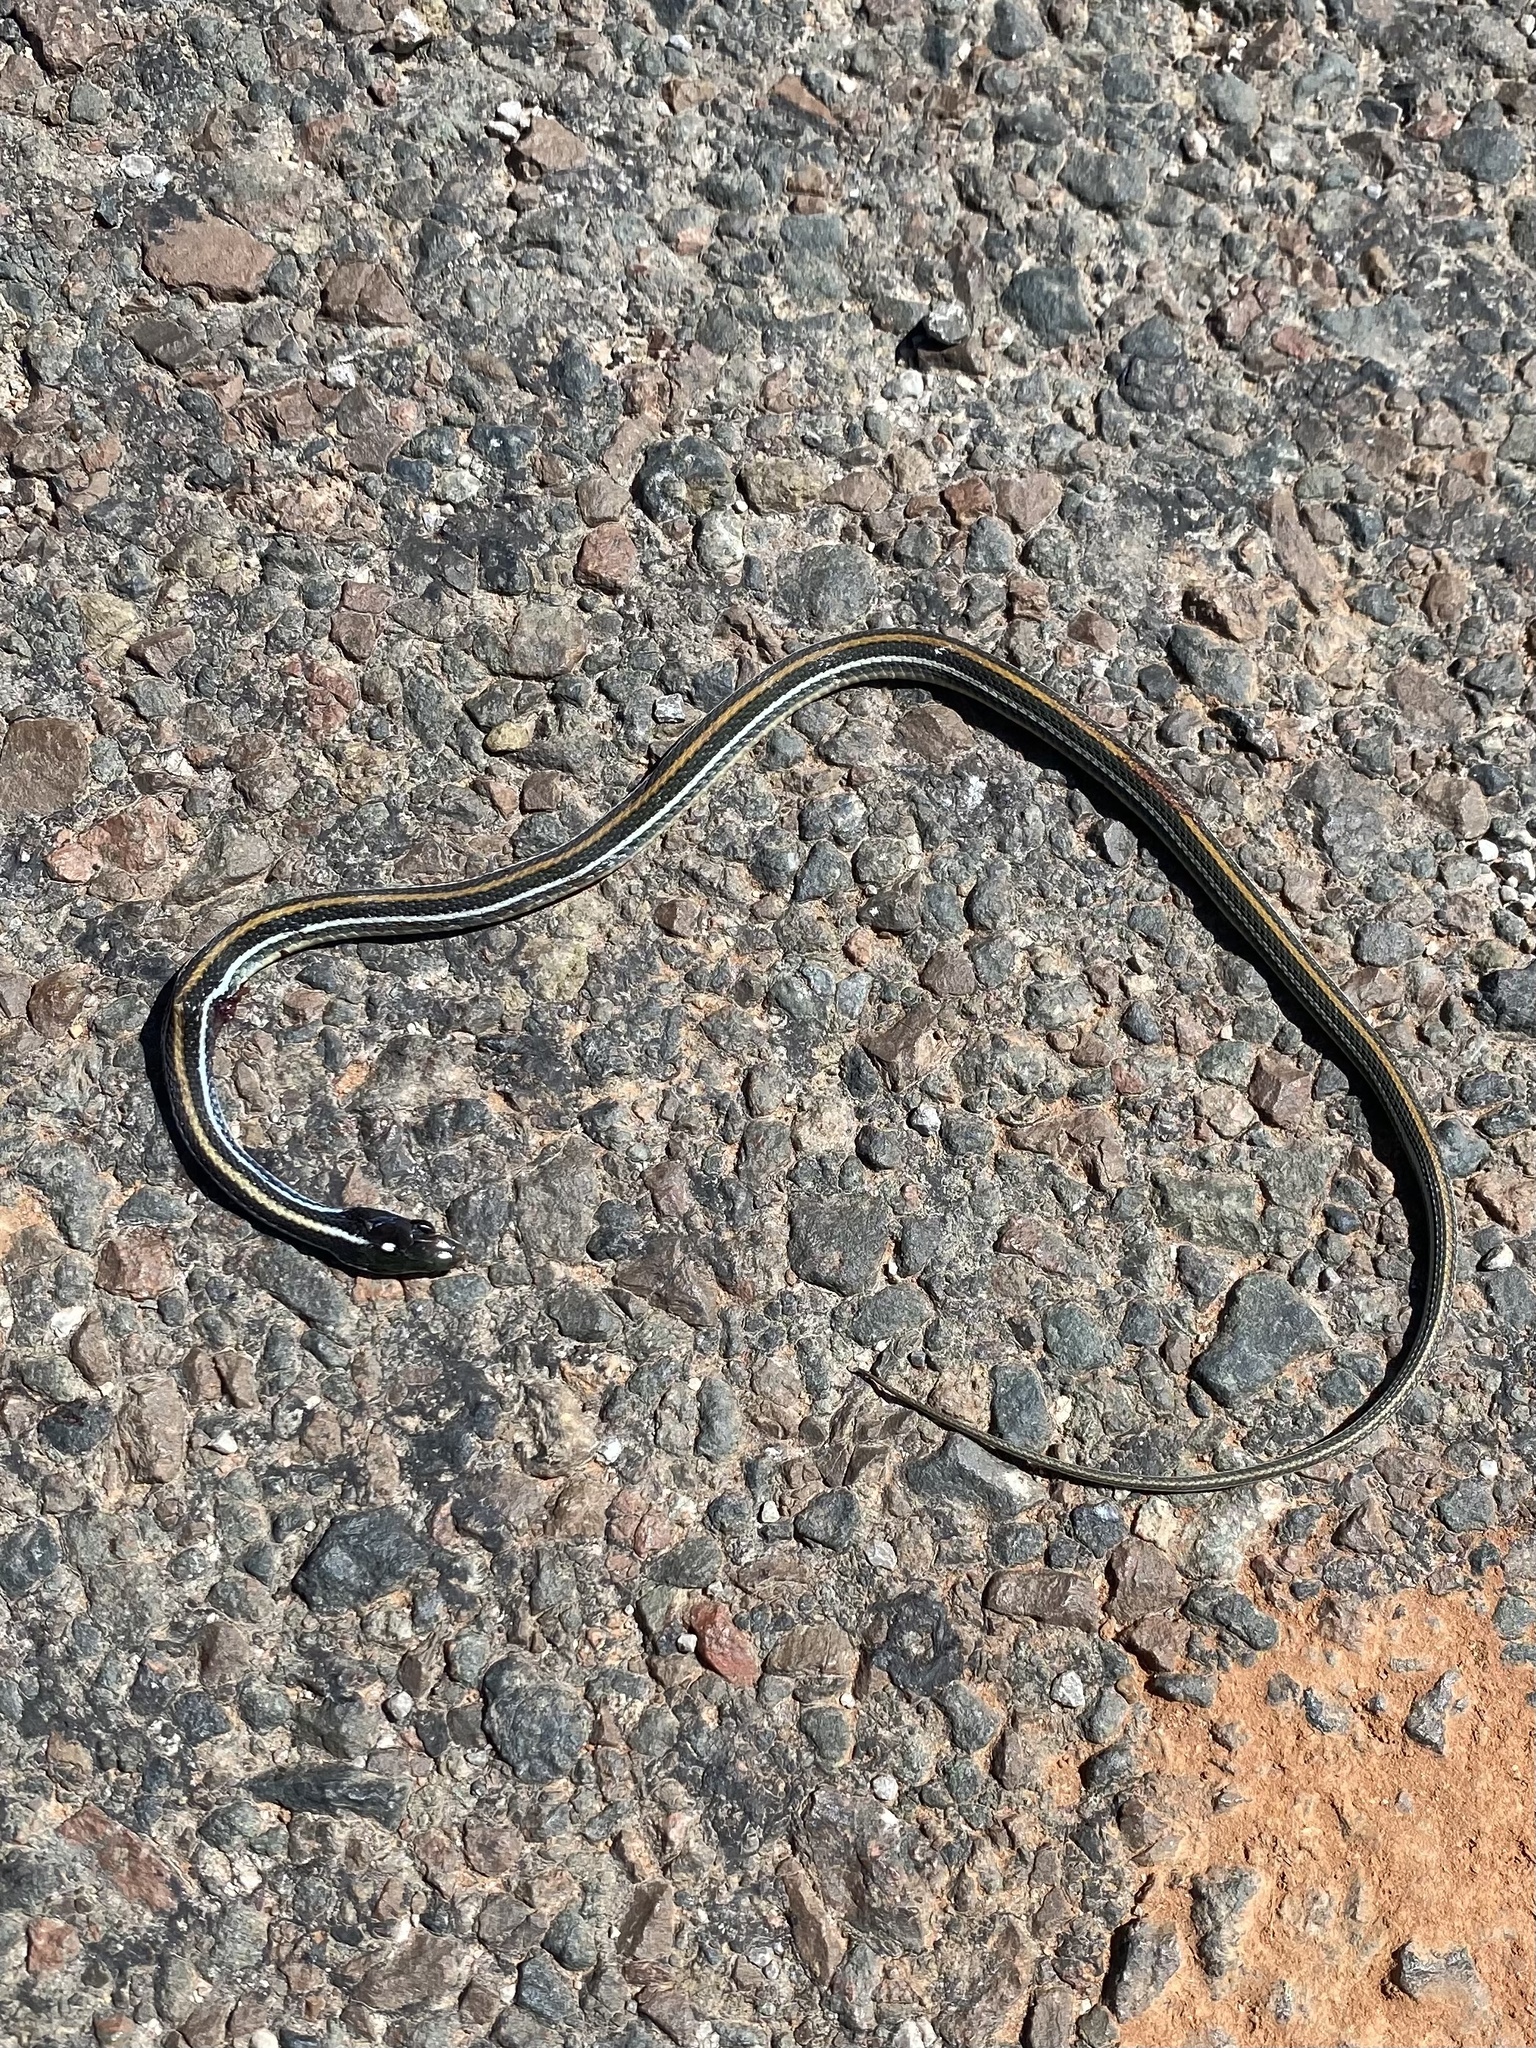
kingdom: Animalia
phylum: Chordata
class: Squamata
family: Colubridae
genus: Thamnophis
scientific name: Thamnophis proximus
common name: Western ribbon snake
